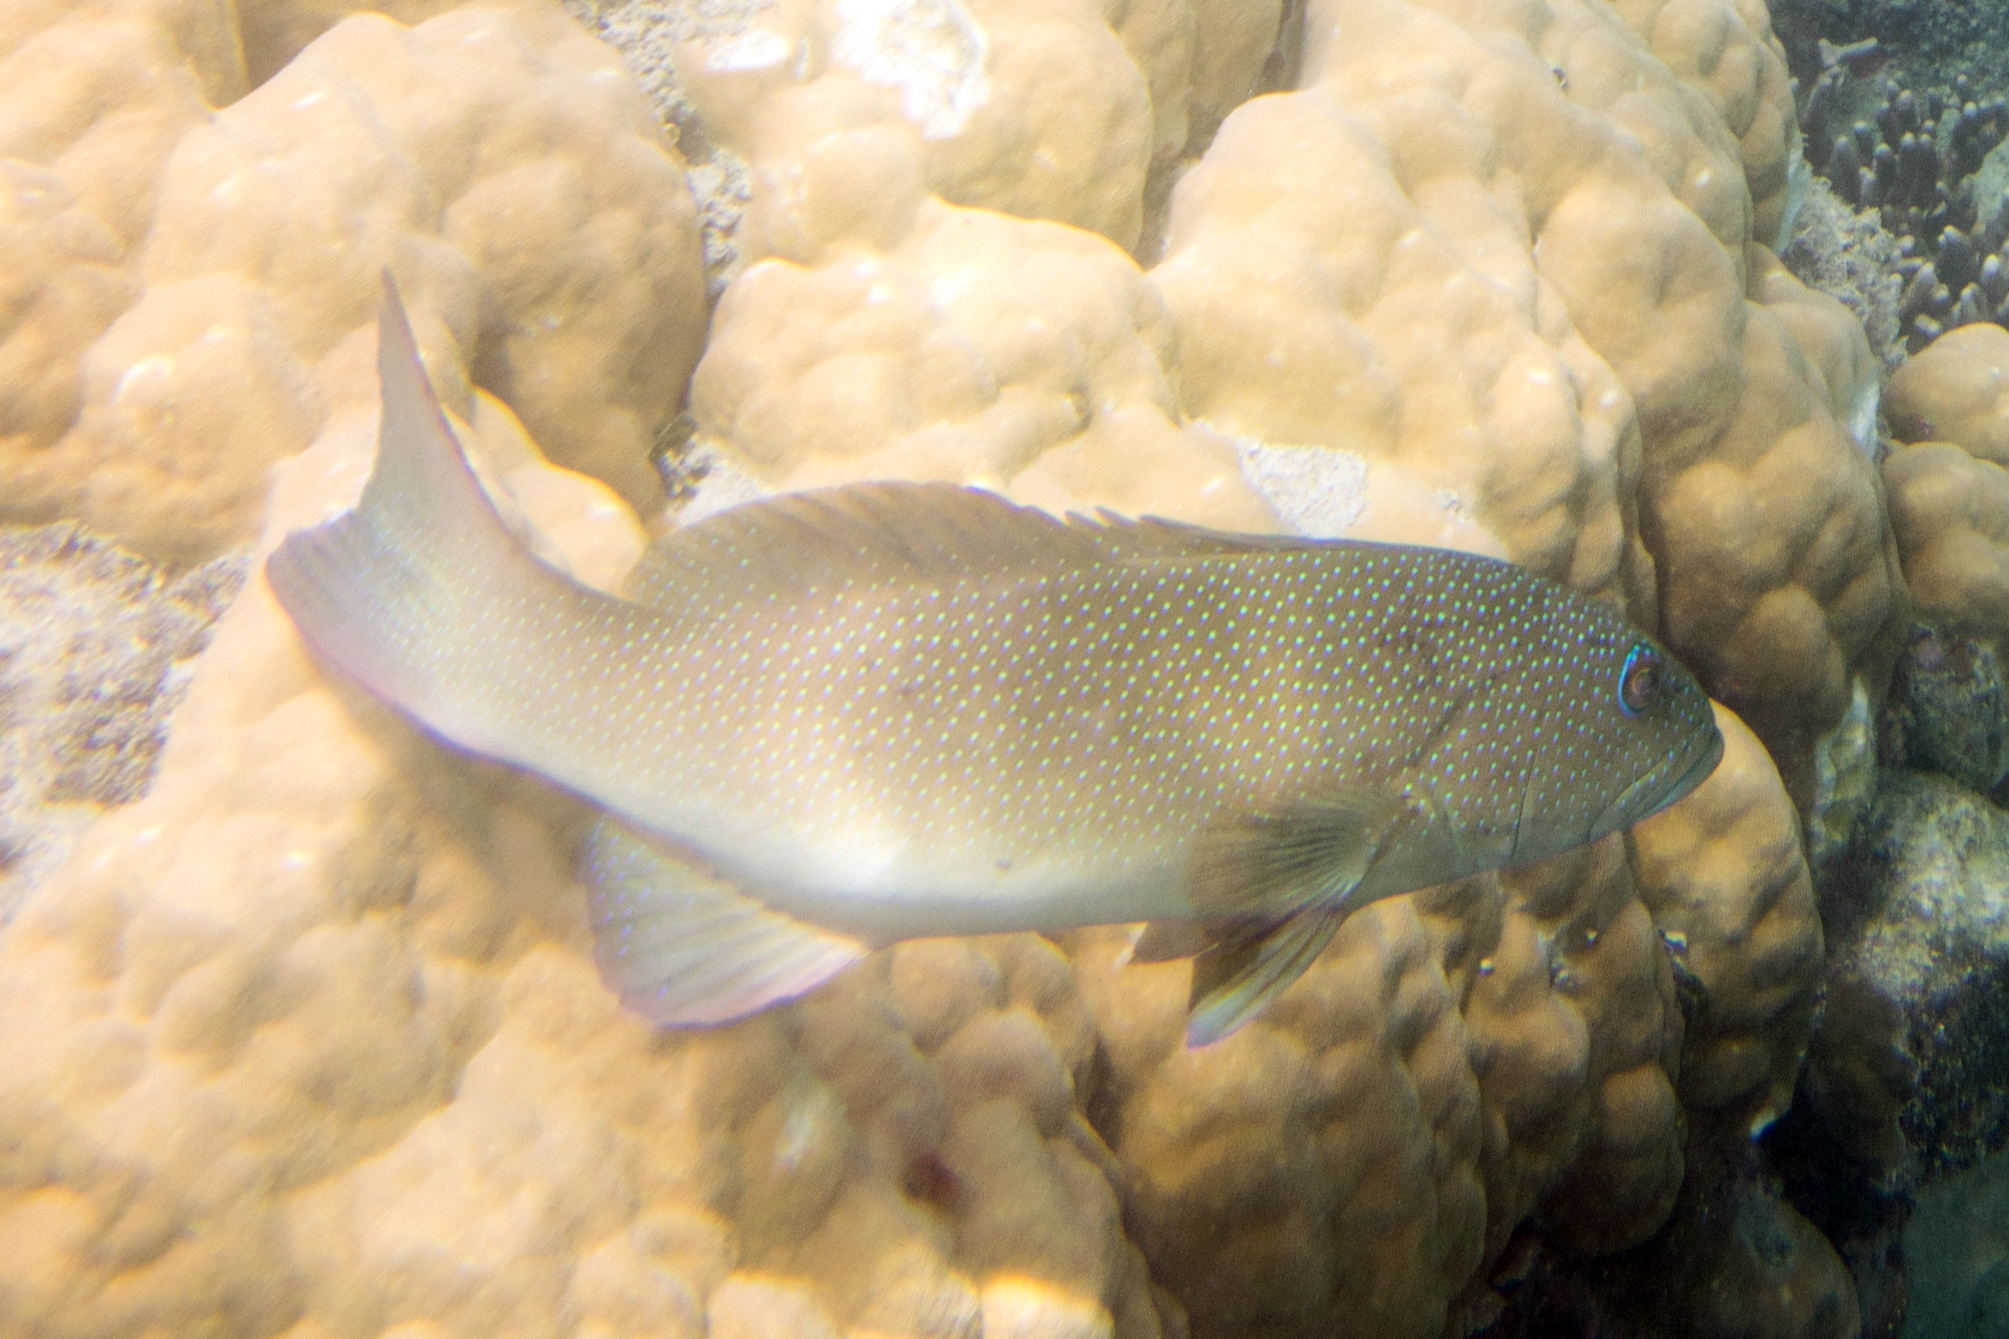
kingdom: Animalia
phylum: Chordata
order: Perciformes
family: Serranidae
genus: Plectropomus
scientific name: Plectropomus leopardus
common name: Coral trout
